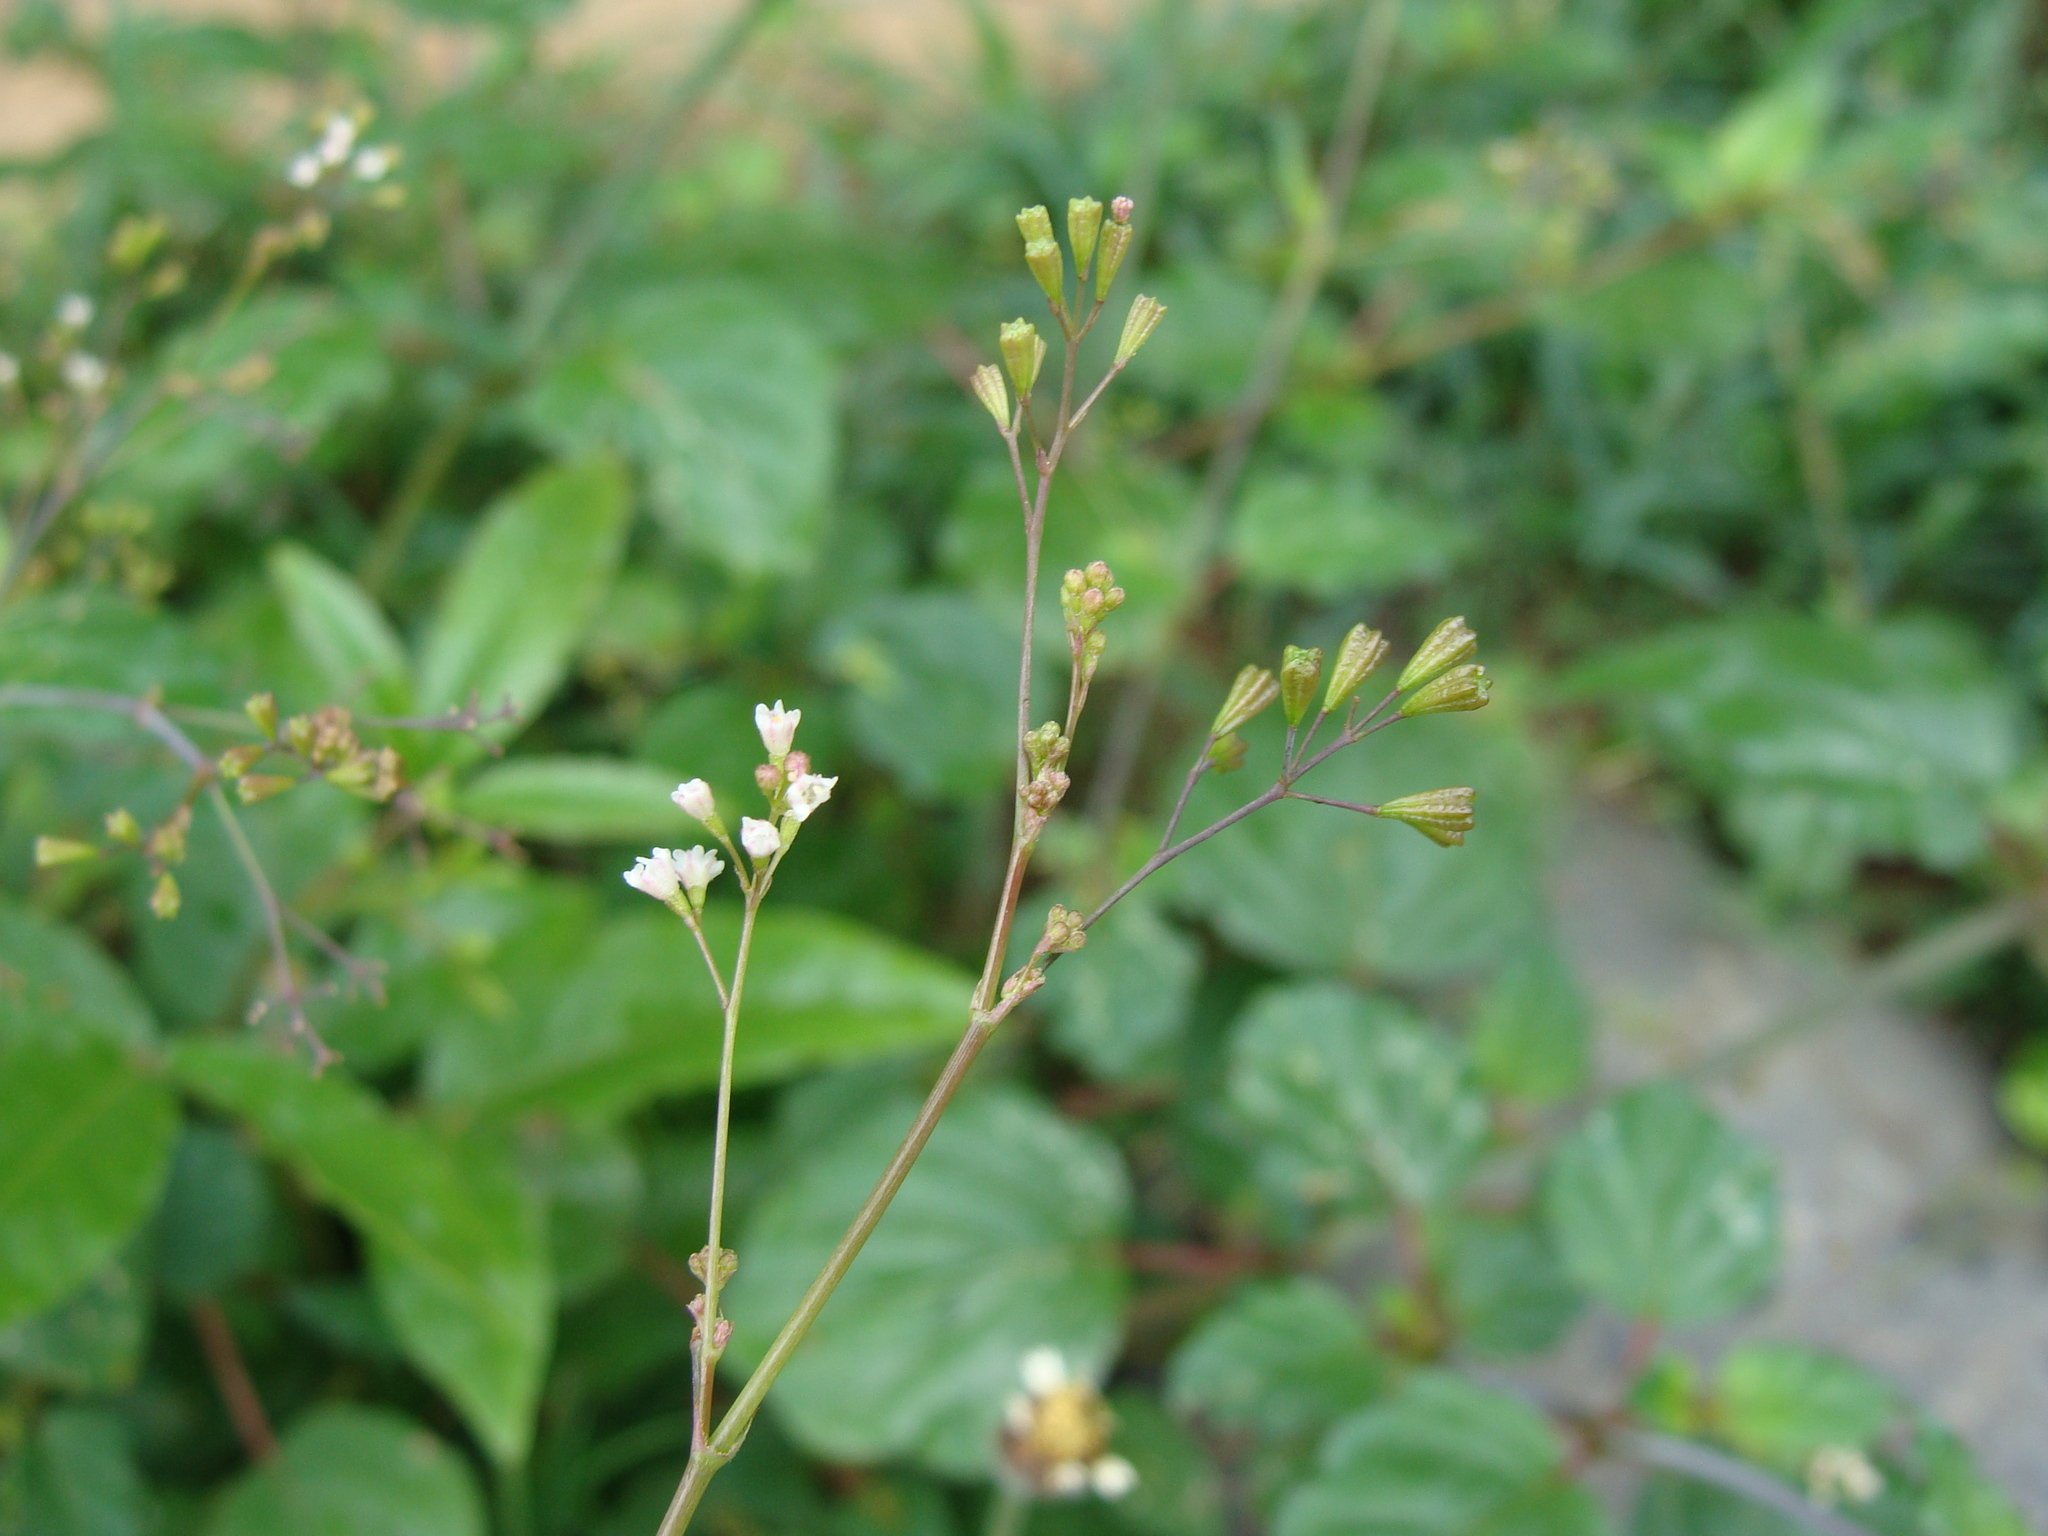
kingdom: Plantae
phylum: Tracheophyta
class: Magnoliopsida
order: Caryophyllales
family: Nyctaginaceae
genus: Boerhavia
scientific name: Boerhavia erecta
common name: Erect spiderling
